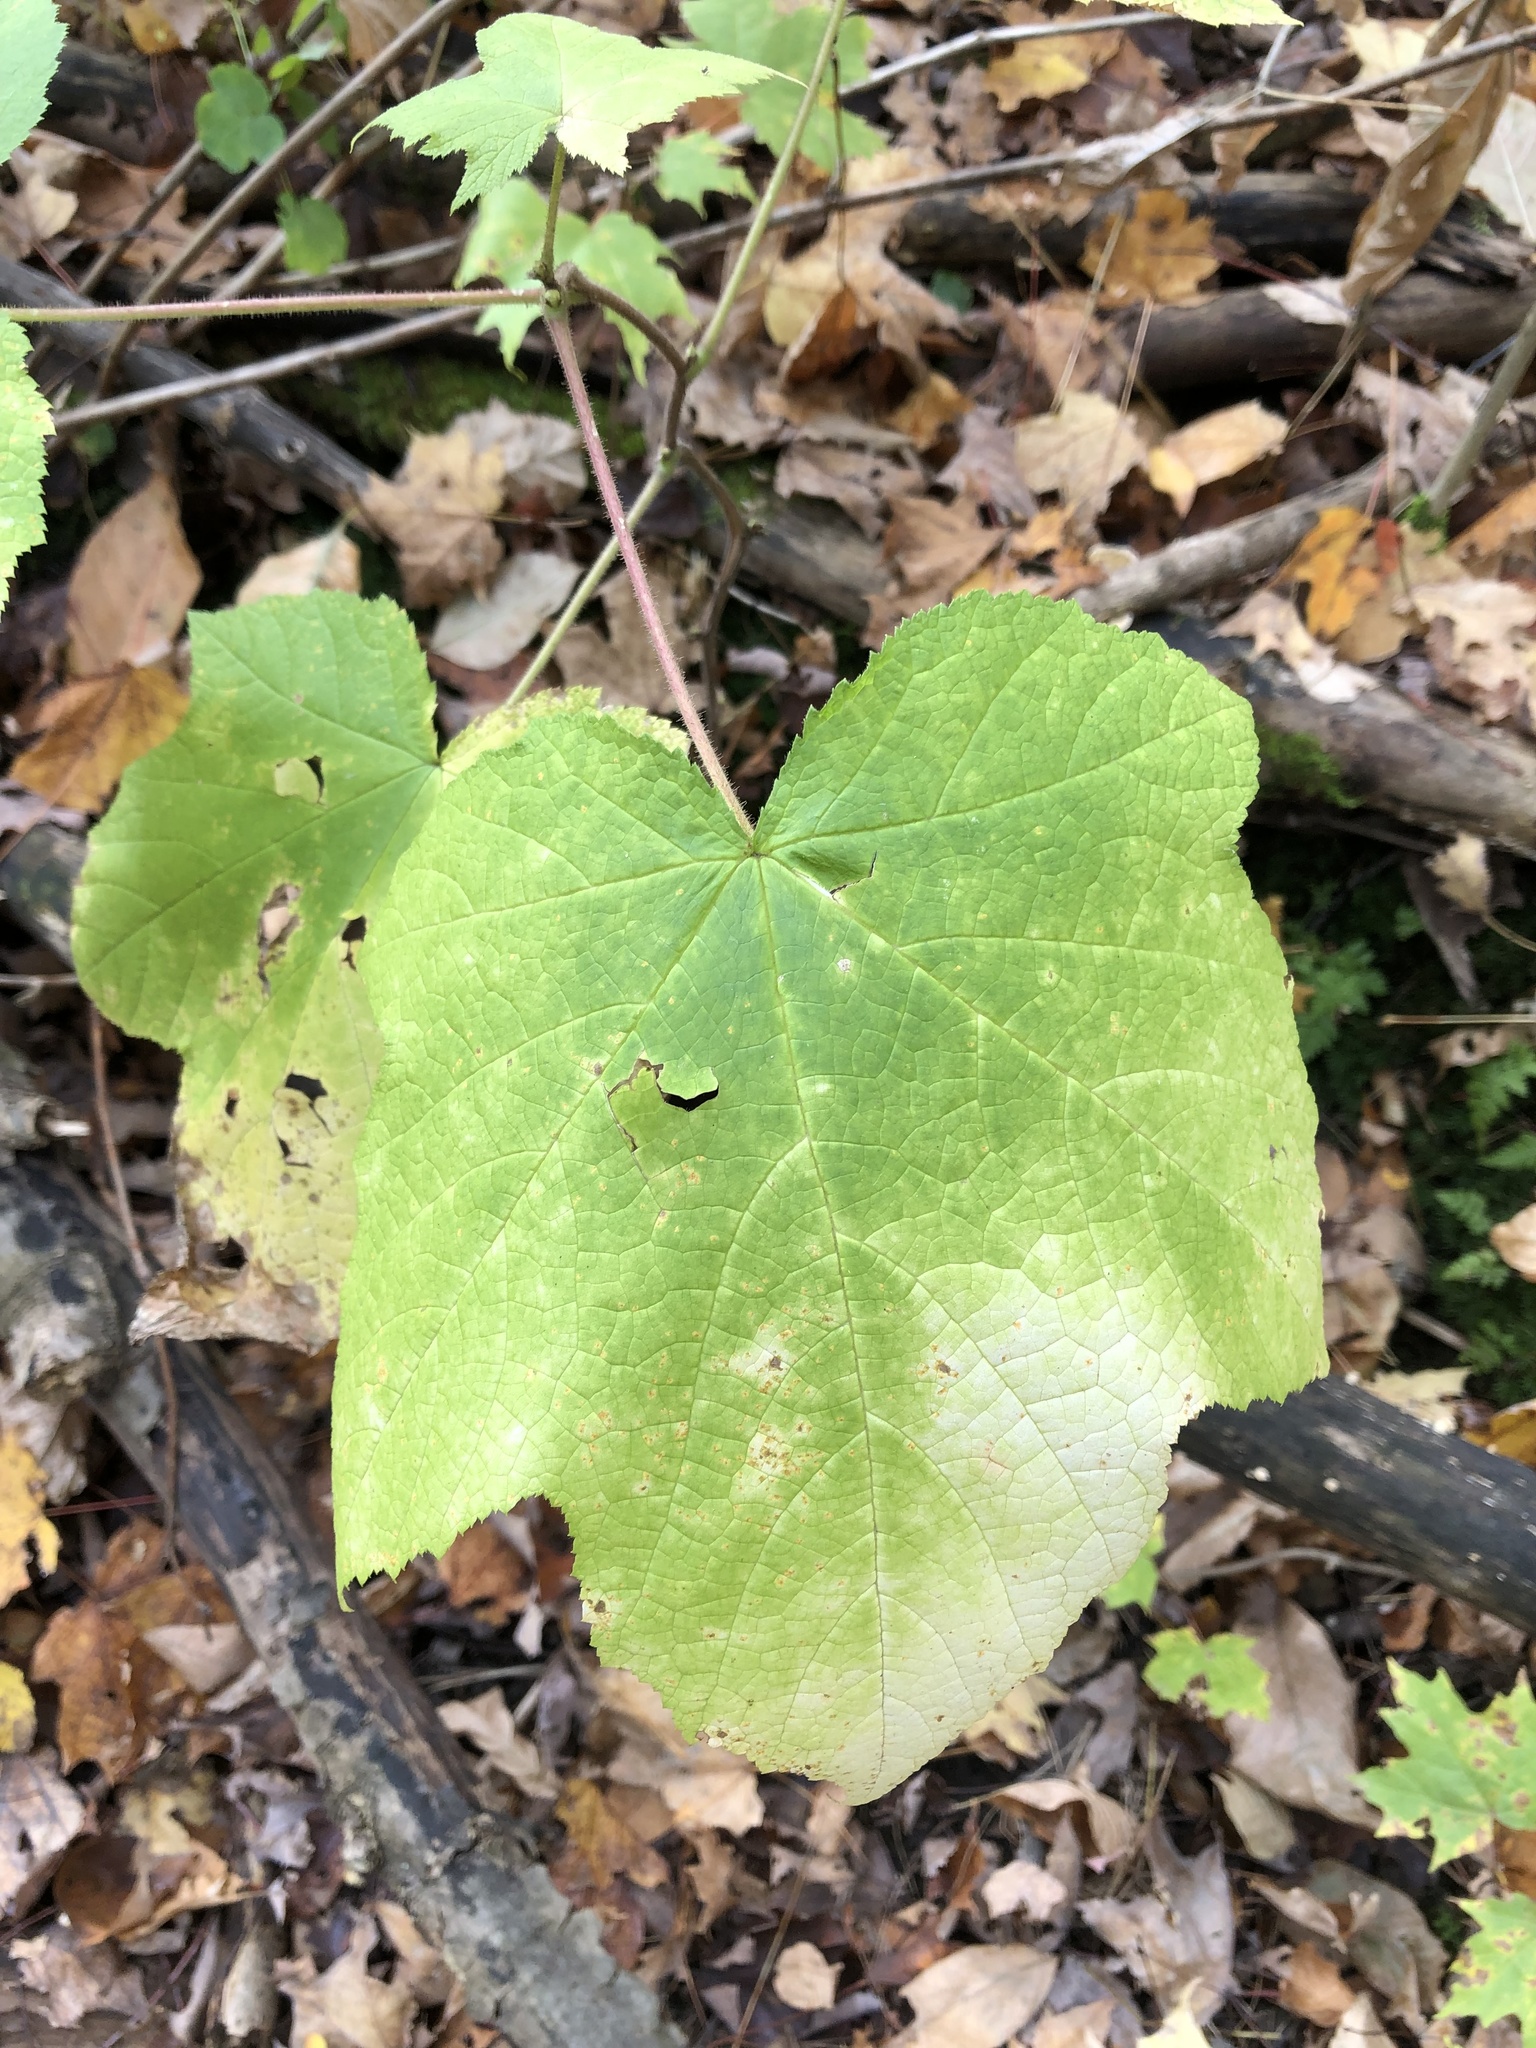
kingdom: Plantae
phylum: Tracheophyta
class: Magnoliopsida
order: Rosales
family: Rosaceae
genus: Rubus
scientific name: Rubus odoratus
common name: Purple-flowered raspberry
